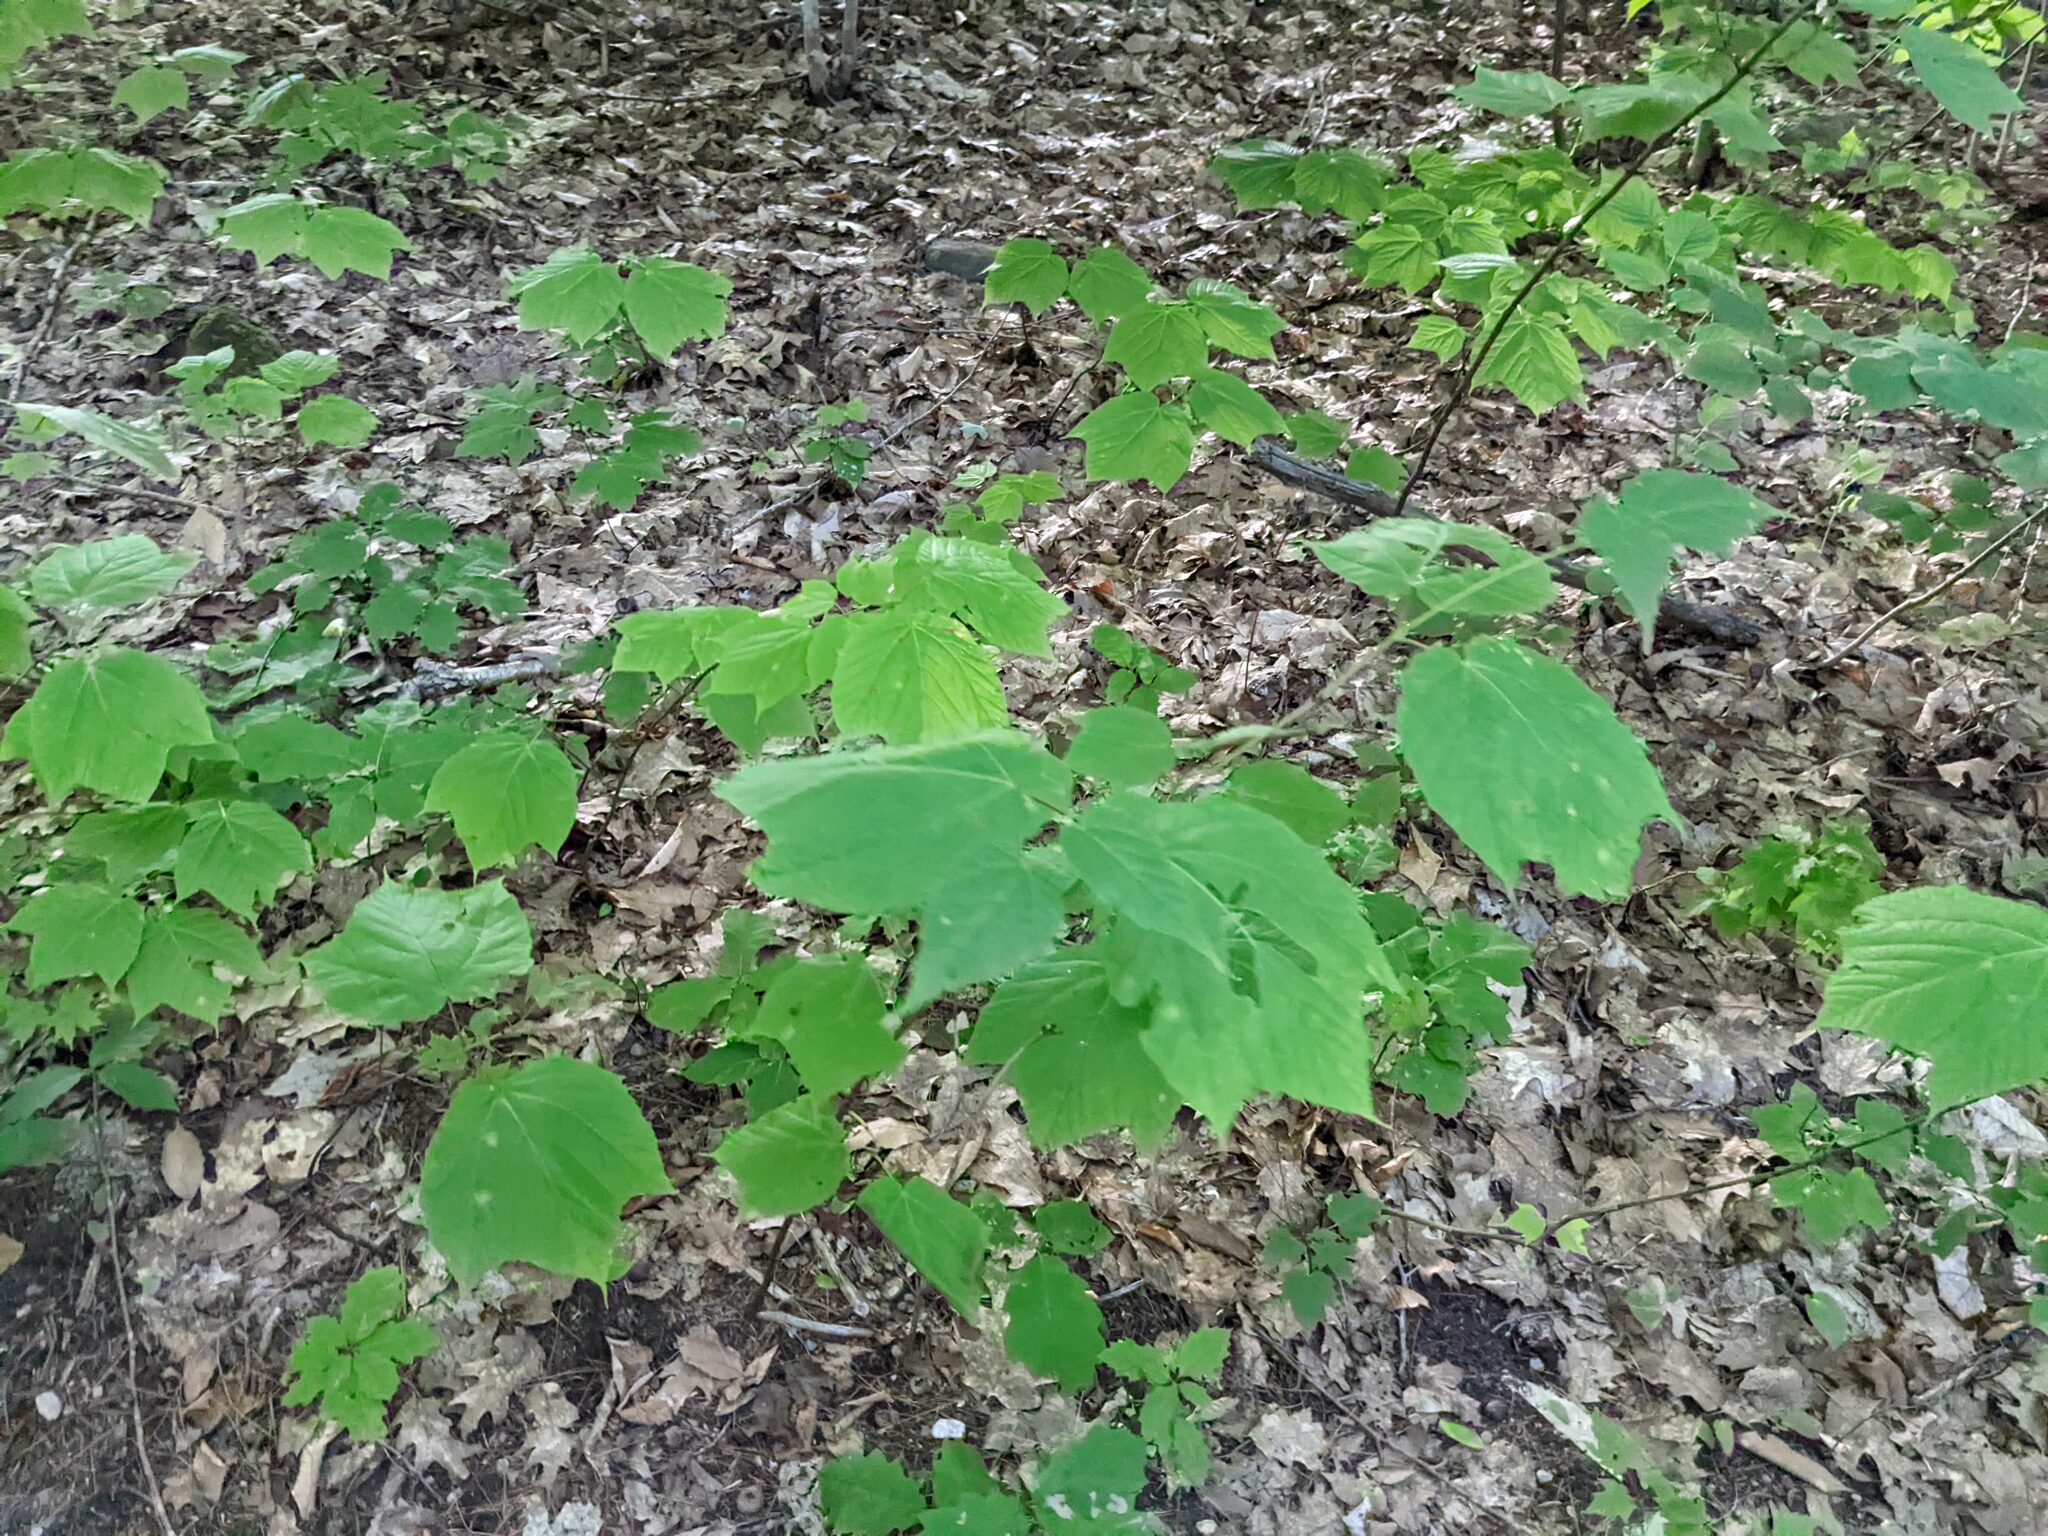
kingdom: Plantae
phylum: Tracheophyta
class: Magnoliopsida
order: Sapindales
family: Sapindaceae
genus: Acer
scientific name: Acer pensylvanicum
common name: Moosewood
